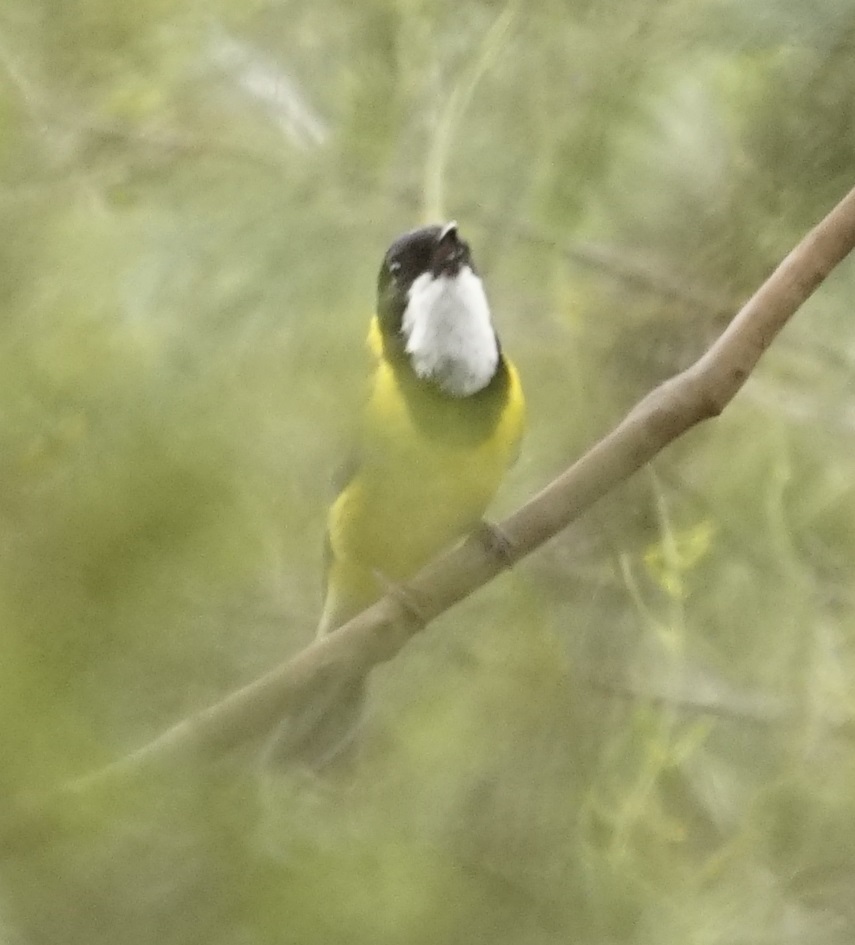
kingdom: Animalia
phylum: Chordata
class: Aves
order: Passeriformes
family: Pachycephalidae
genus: Pachycephala
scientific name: Pachycephala pectoralis
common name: Australian golden whistler
